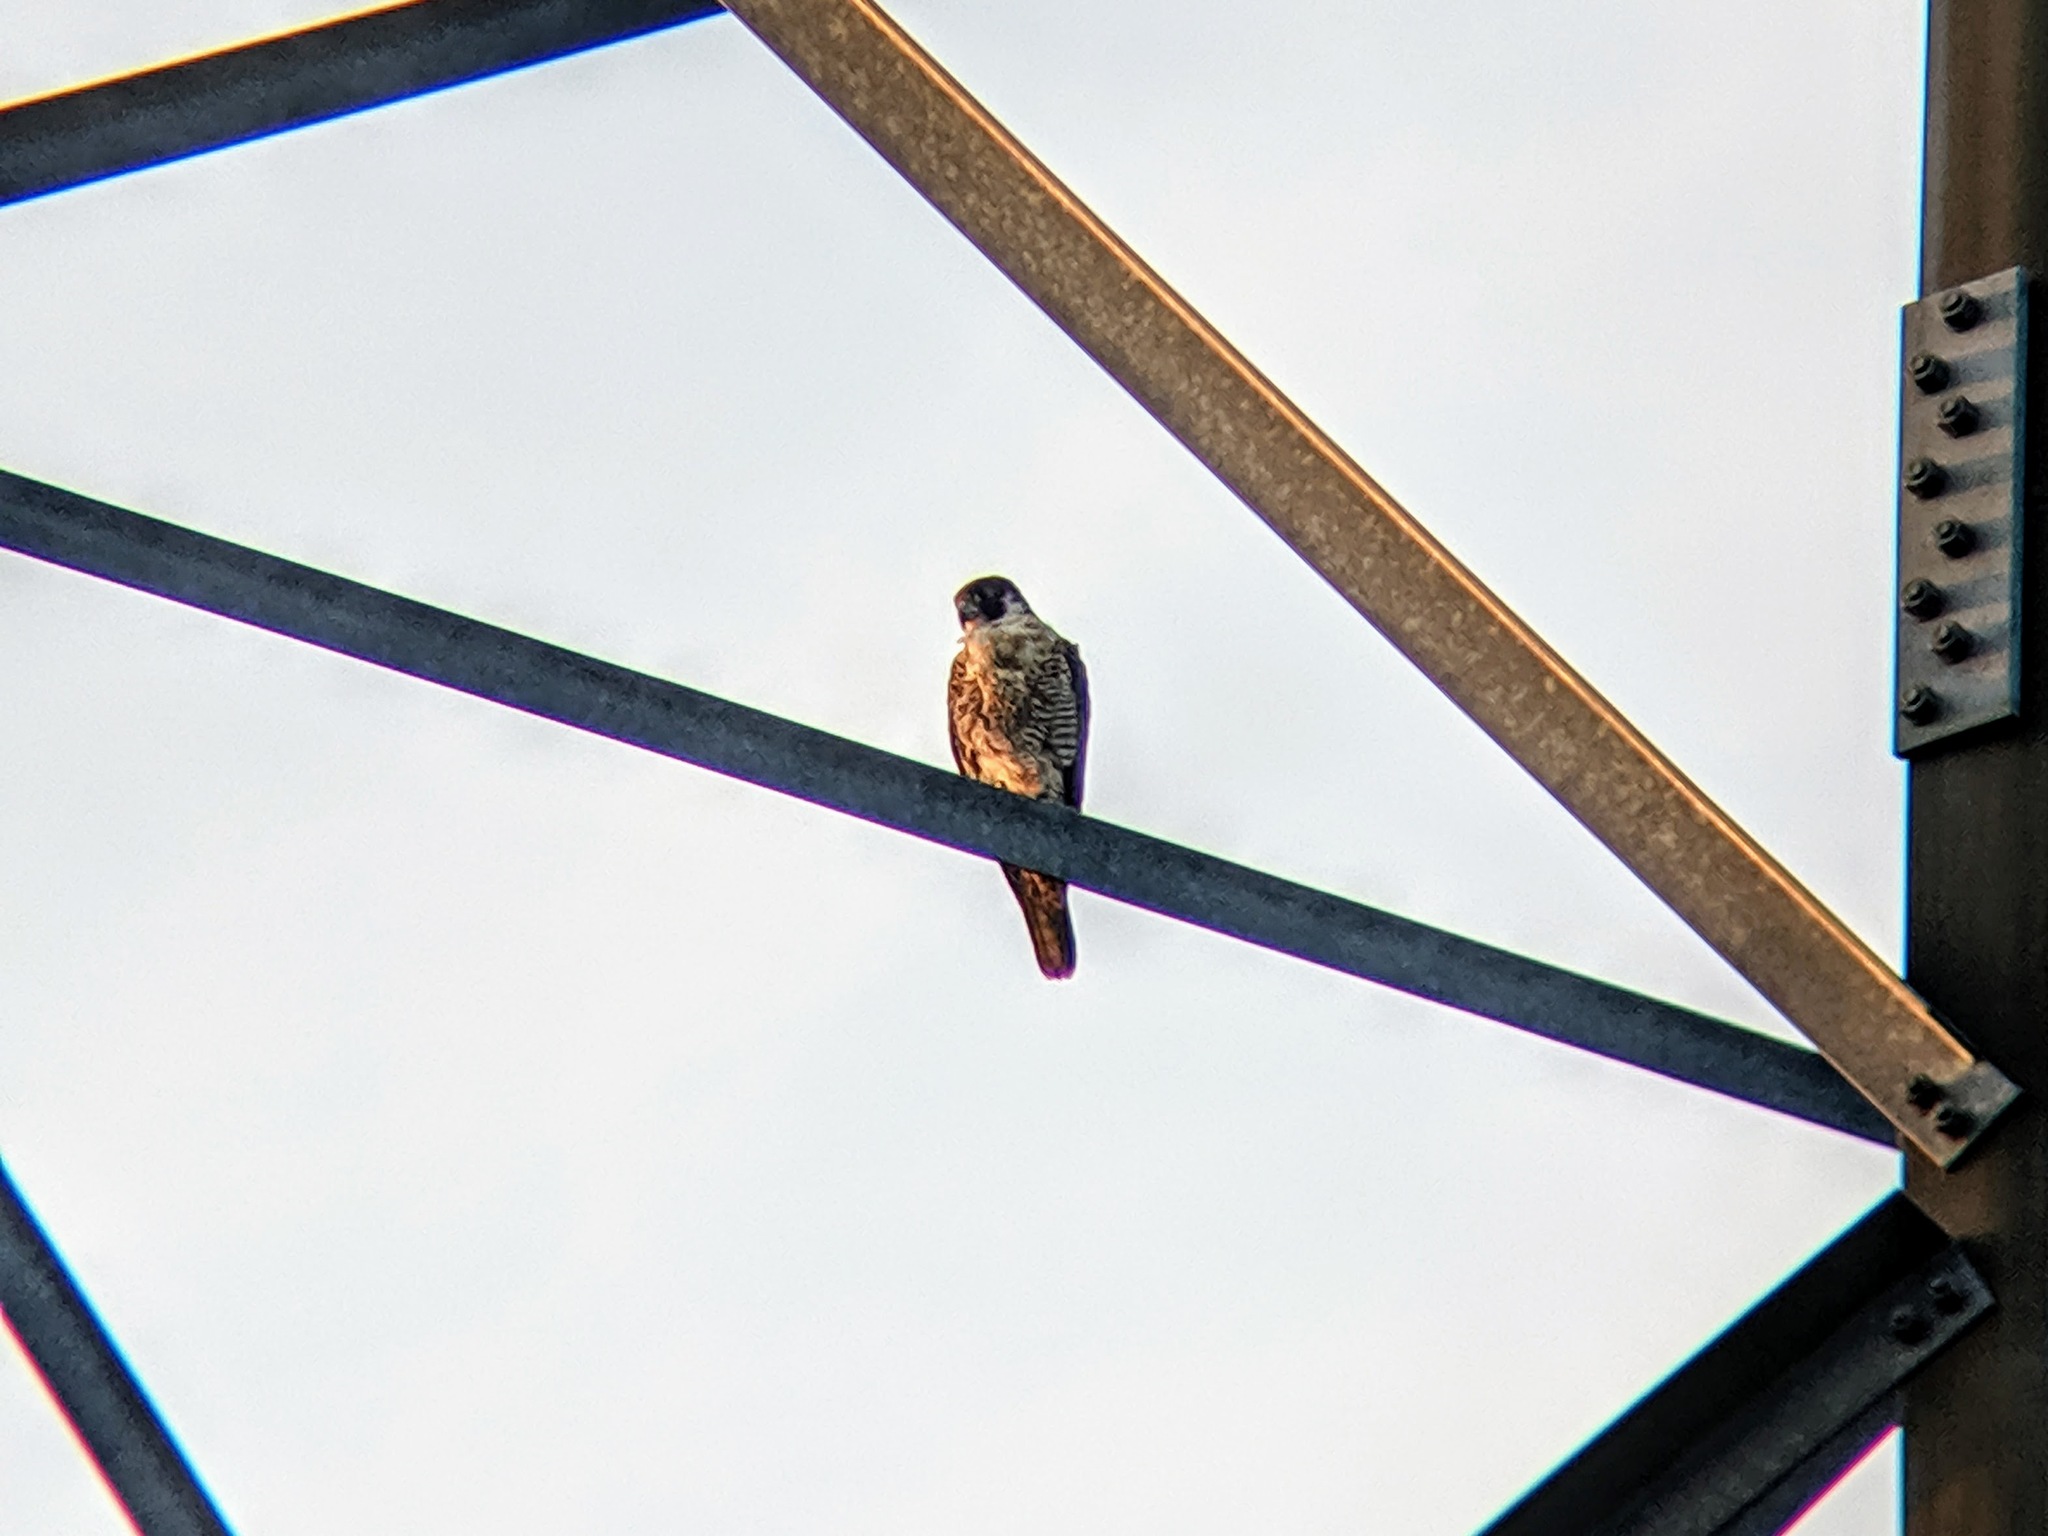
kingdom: Animalia
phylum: Chordata
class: Aves
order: Falconiformes
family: Falconidae
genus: Falco
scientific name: Falco peregrinus
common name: Peregrine falcon
